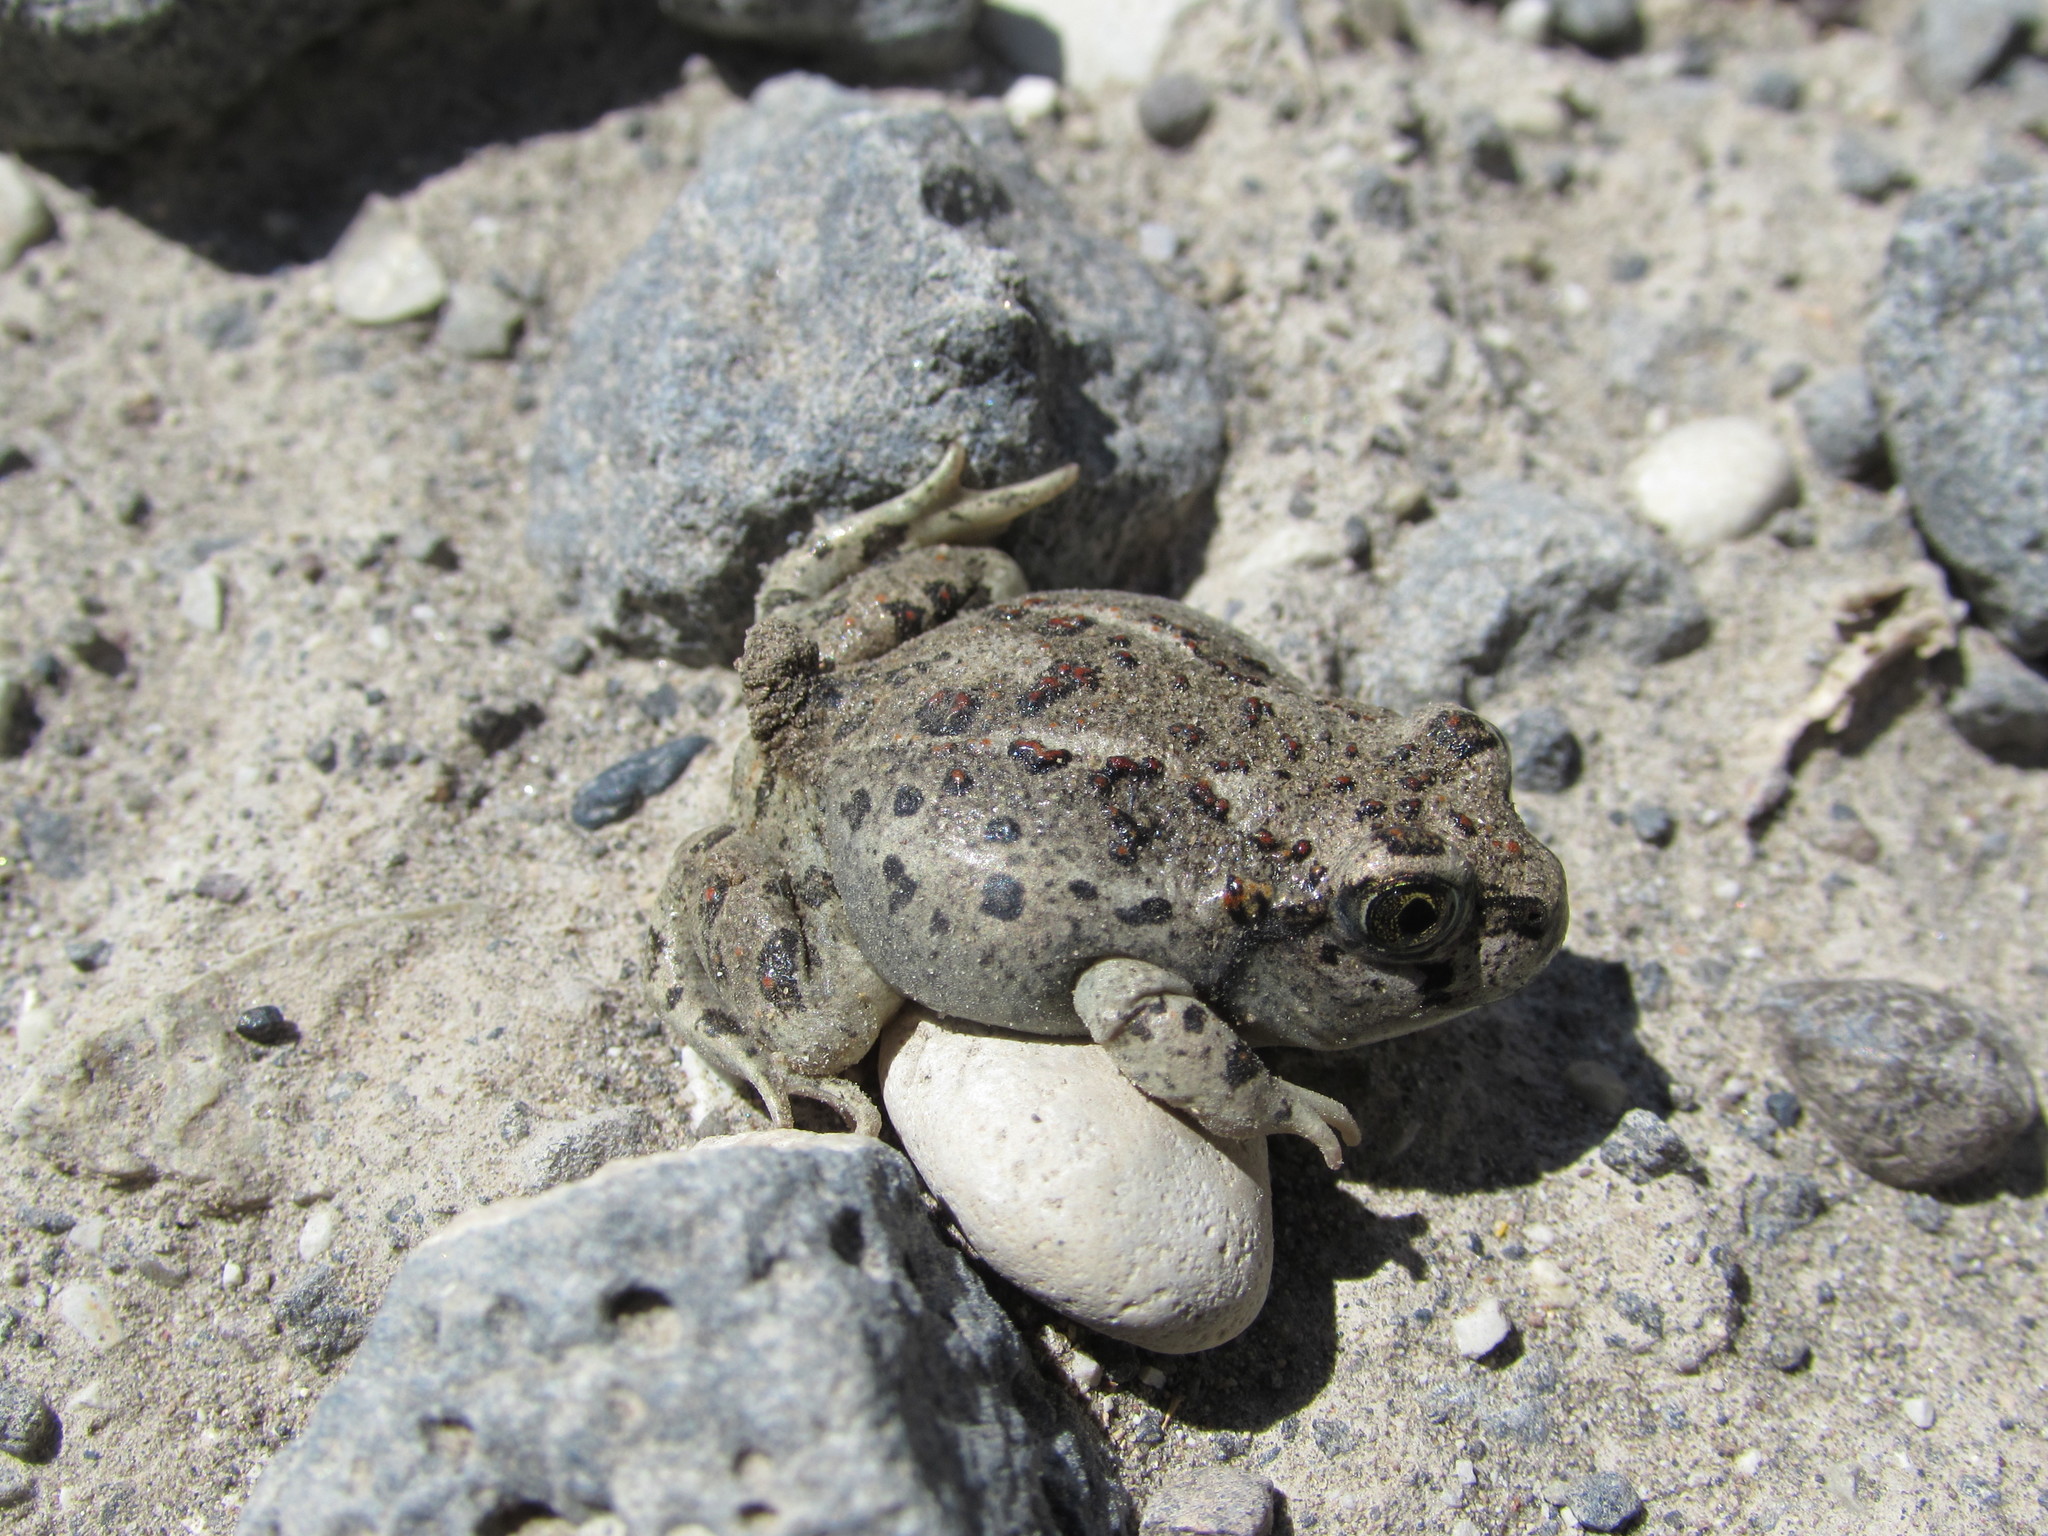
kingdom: Animalia
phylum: Chordata
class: Amphibia
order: Anura
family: Scaphiopodidae
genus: Spea
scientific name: Spea intermontana
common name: Great basin spadefoot
